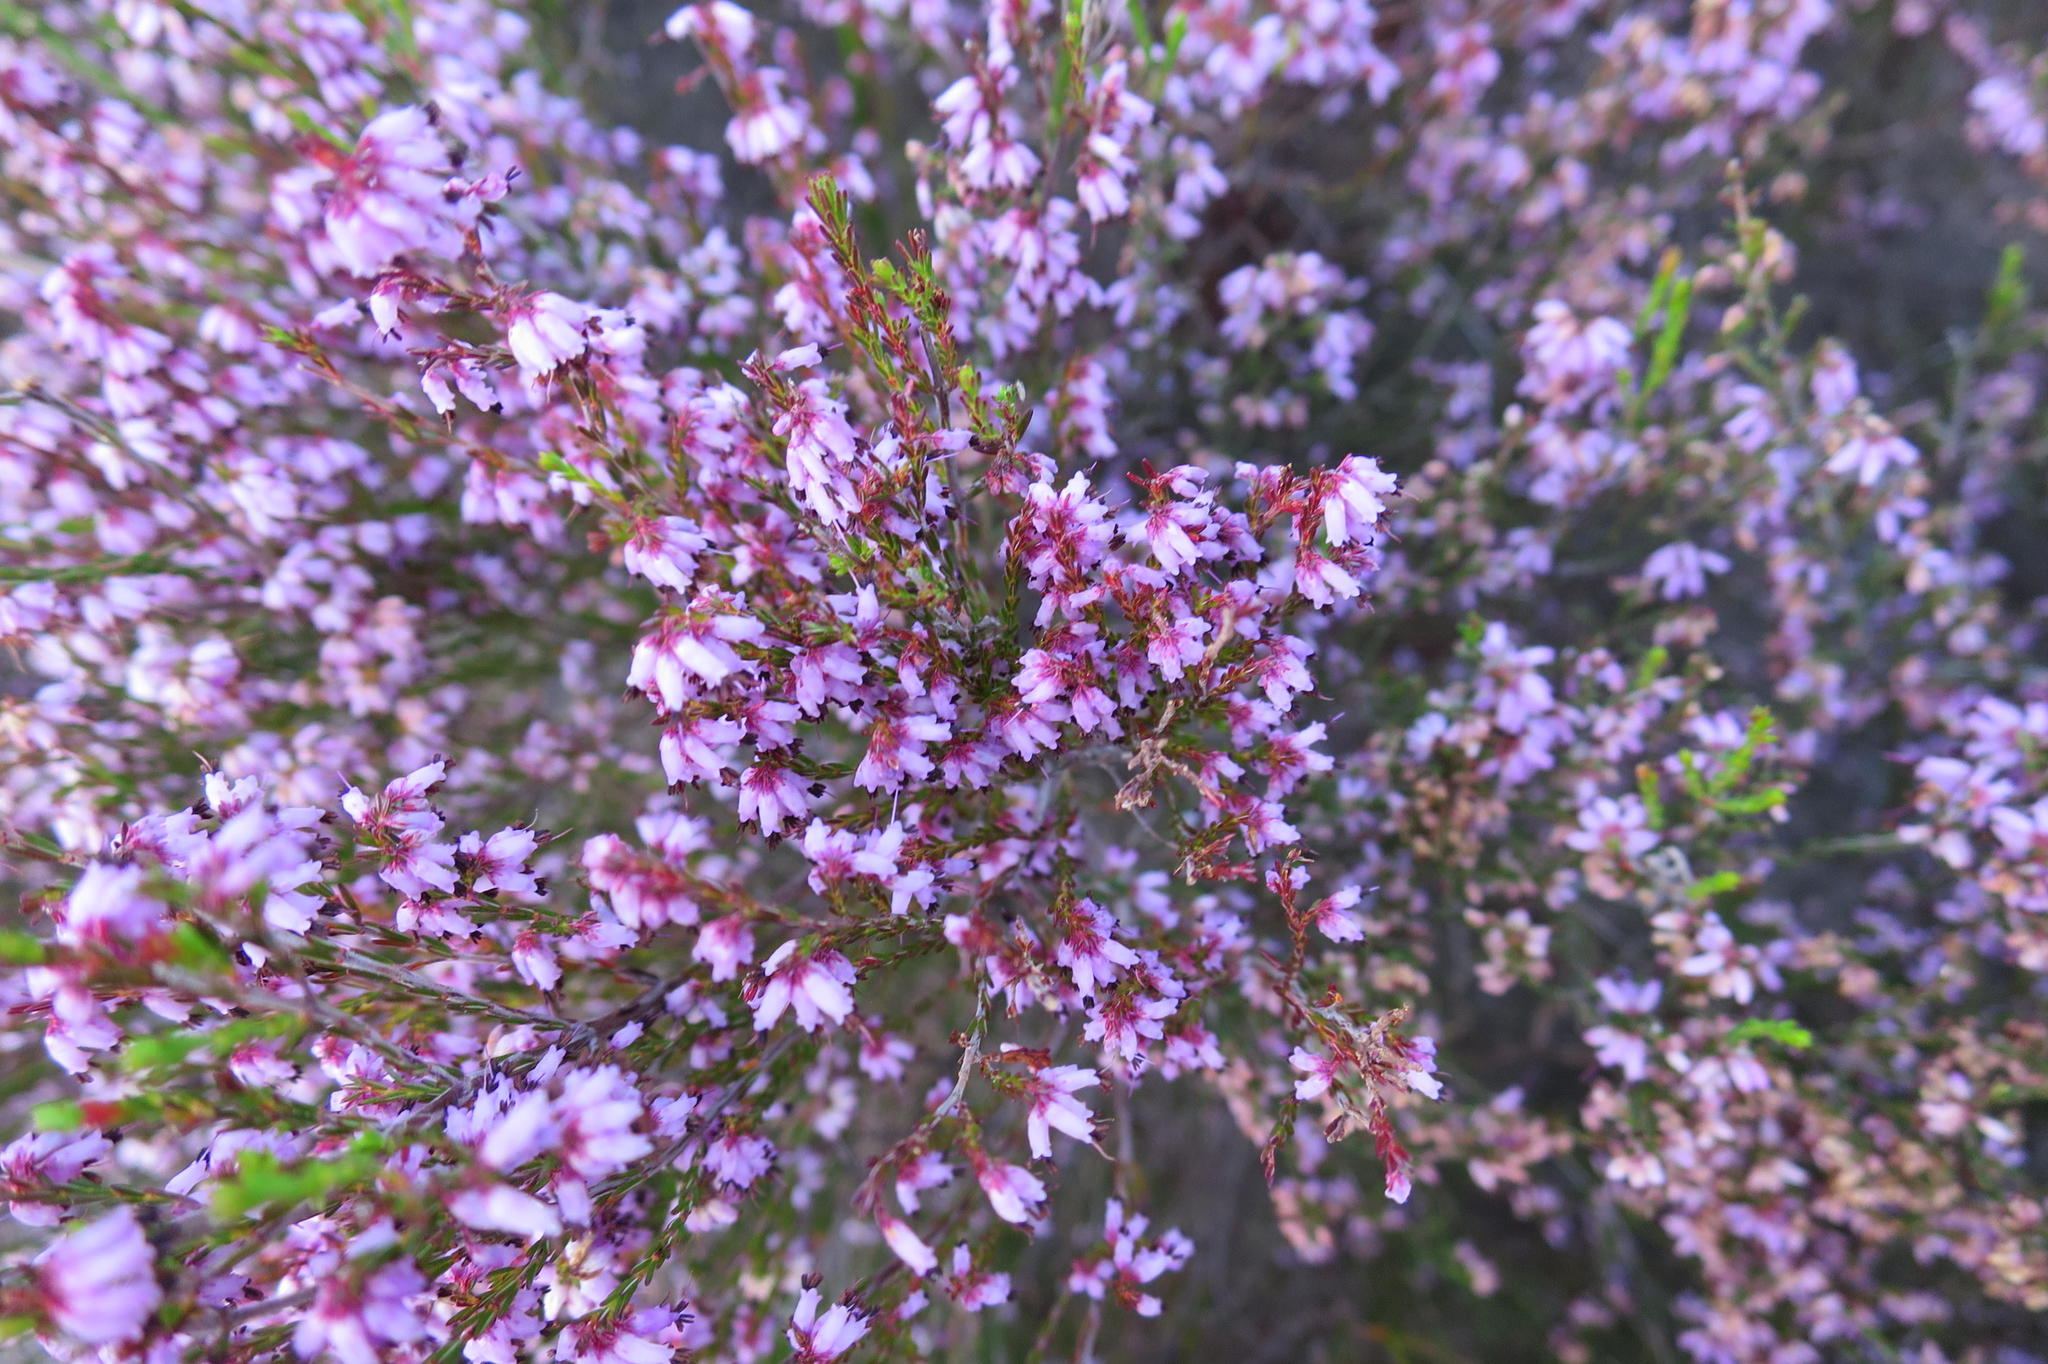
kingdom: Plantae
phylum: Tracheophyta
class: Magnoliopsida
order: Ericales
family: Ericaceae
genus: Erica
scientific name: Erica uberiflora
